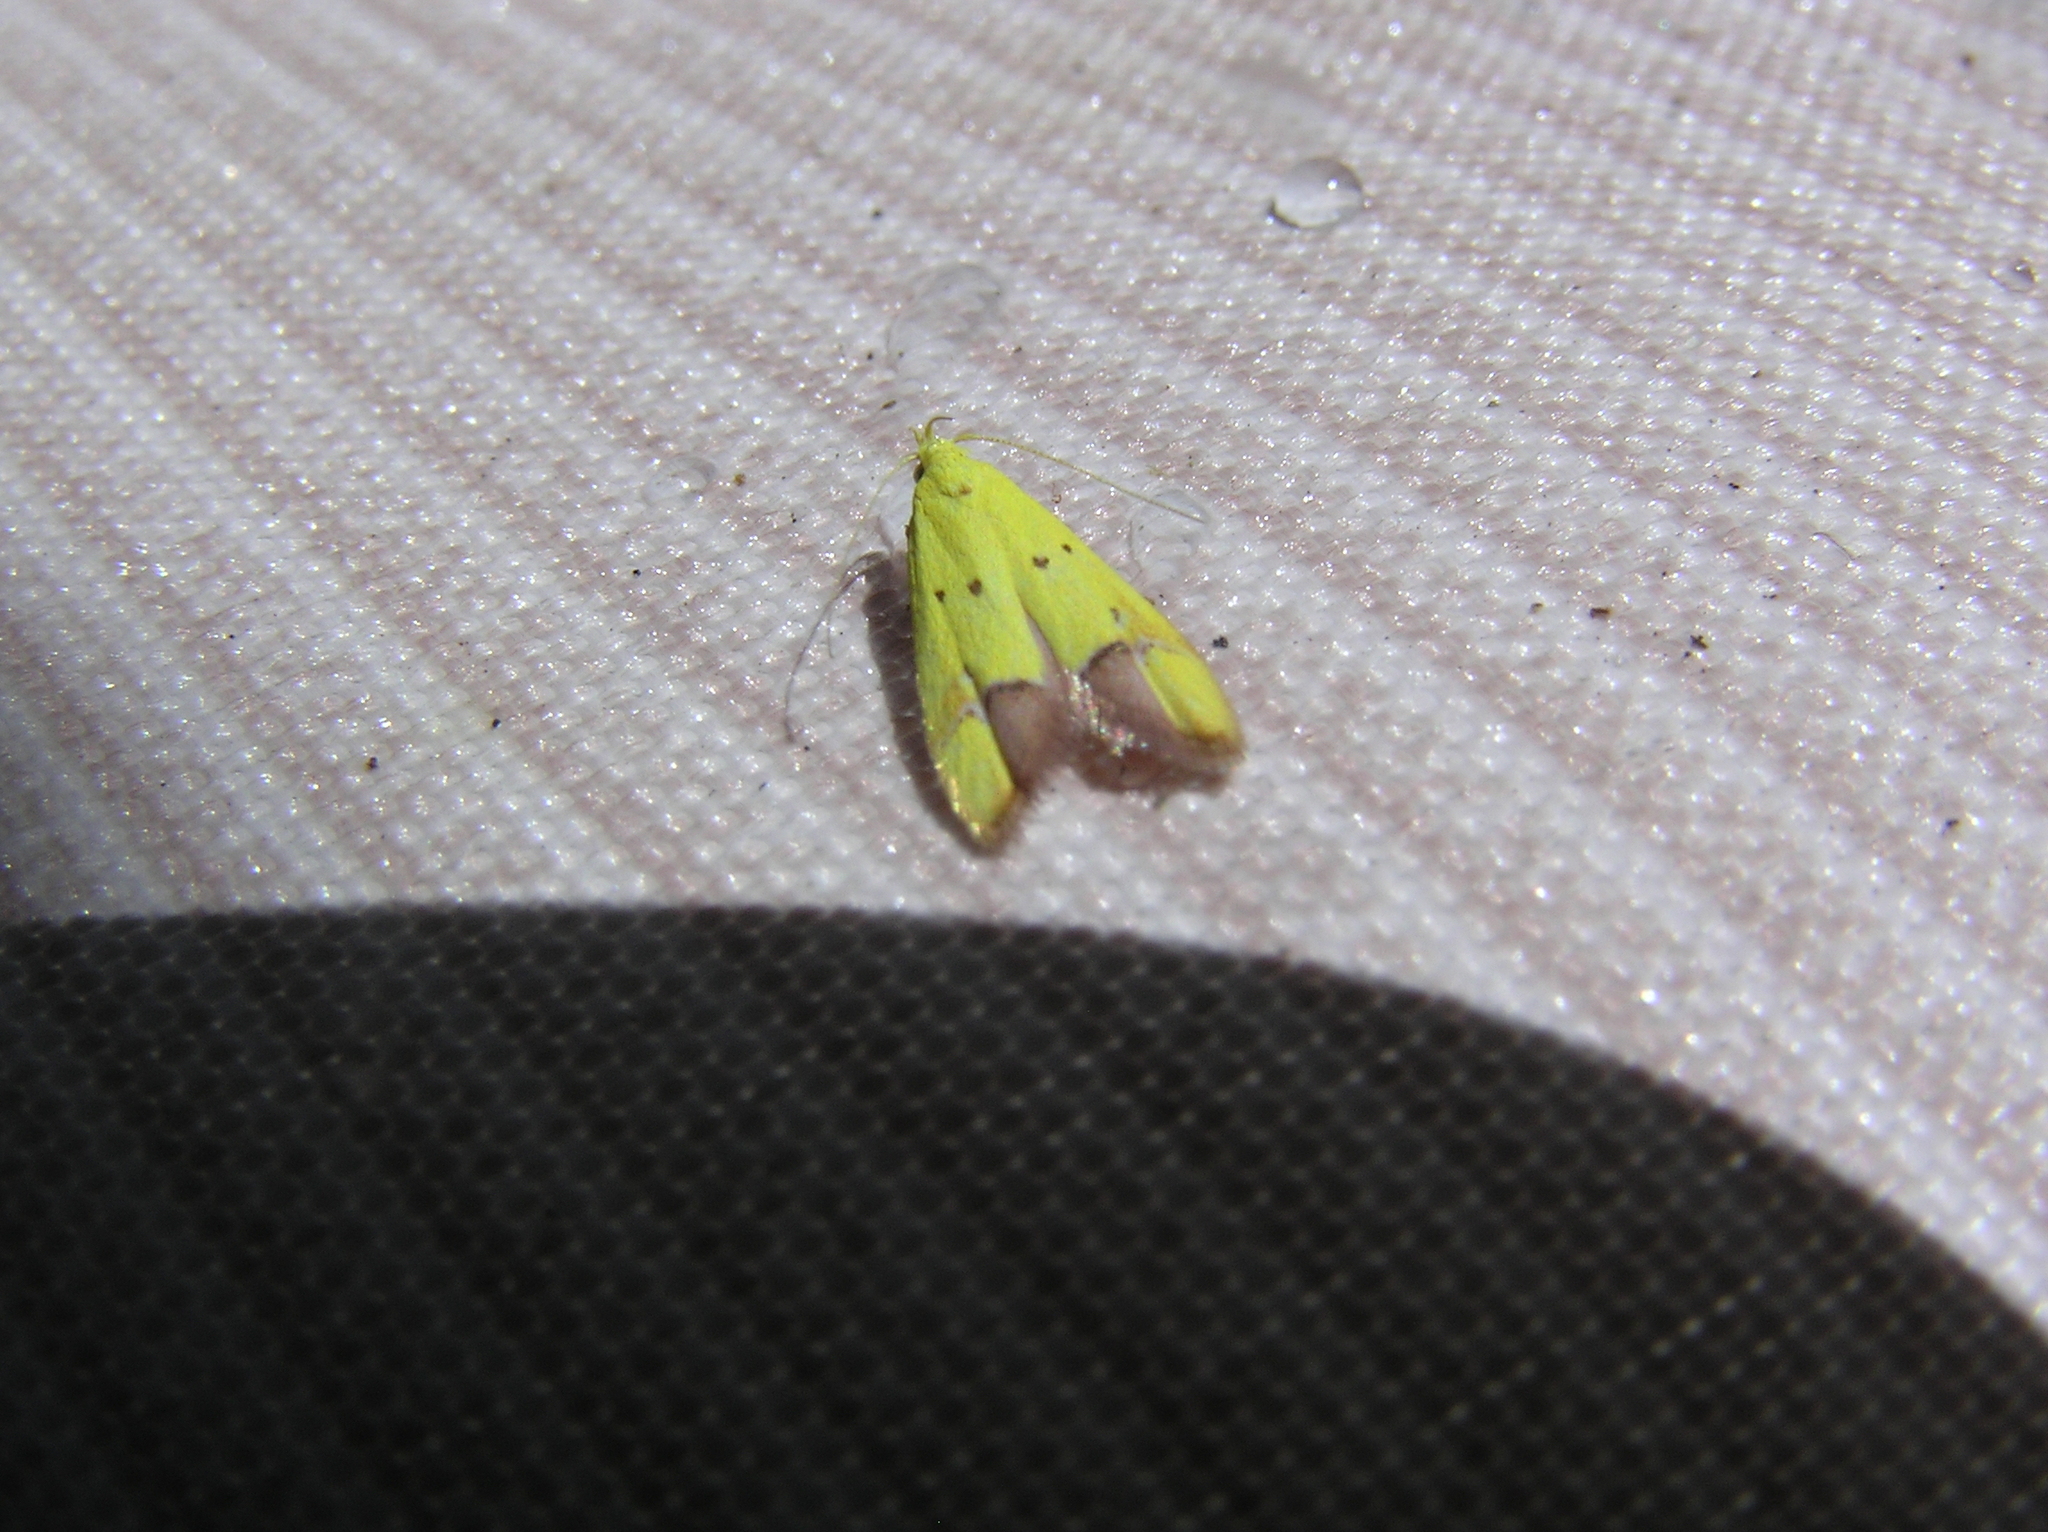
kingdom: Animalia
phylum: Arthropoda
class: Insecta
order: Lepidoptera
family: Oecophoridae
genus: Gymnobathra
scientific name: Gymnobathra flavidella
